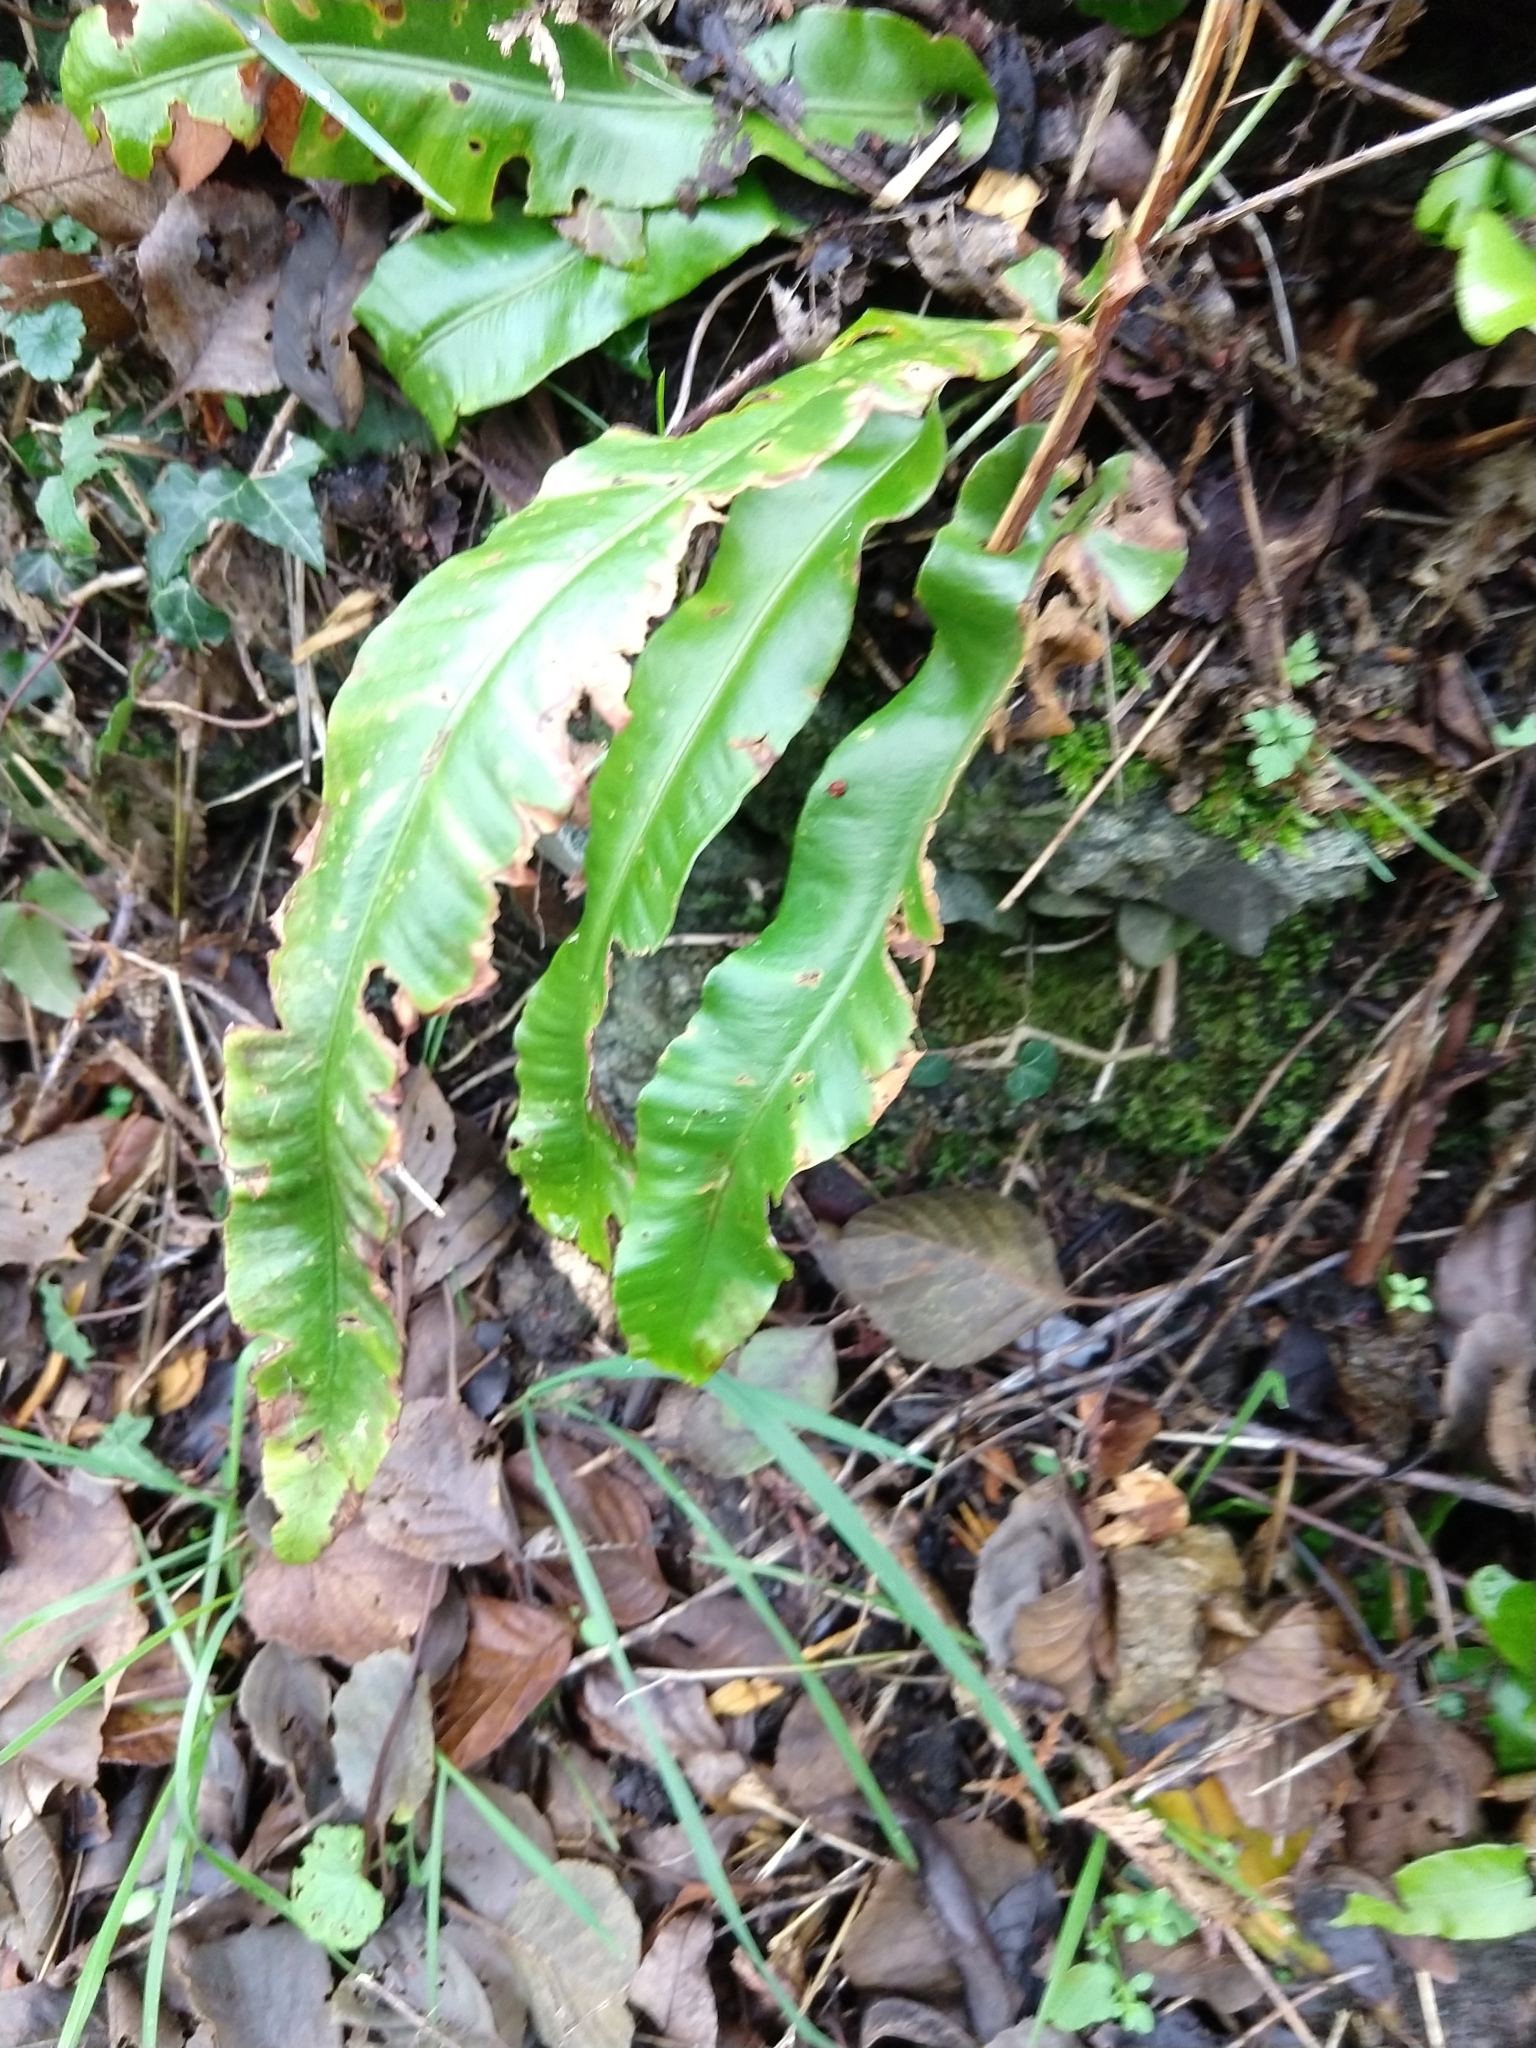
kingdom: Plantae
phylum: Tracheophyta
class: Polypodiopsida
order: Polypodiales
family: Aspleniaceae
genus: Asplenium
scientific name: Asplenium scolopendrium
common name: Hart's-tongue fern
